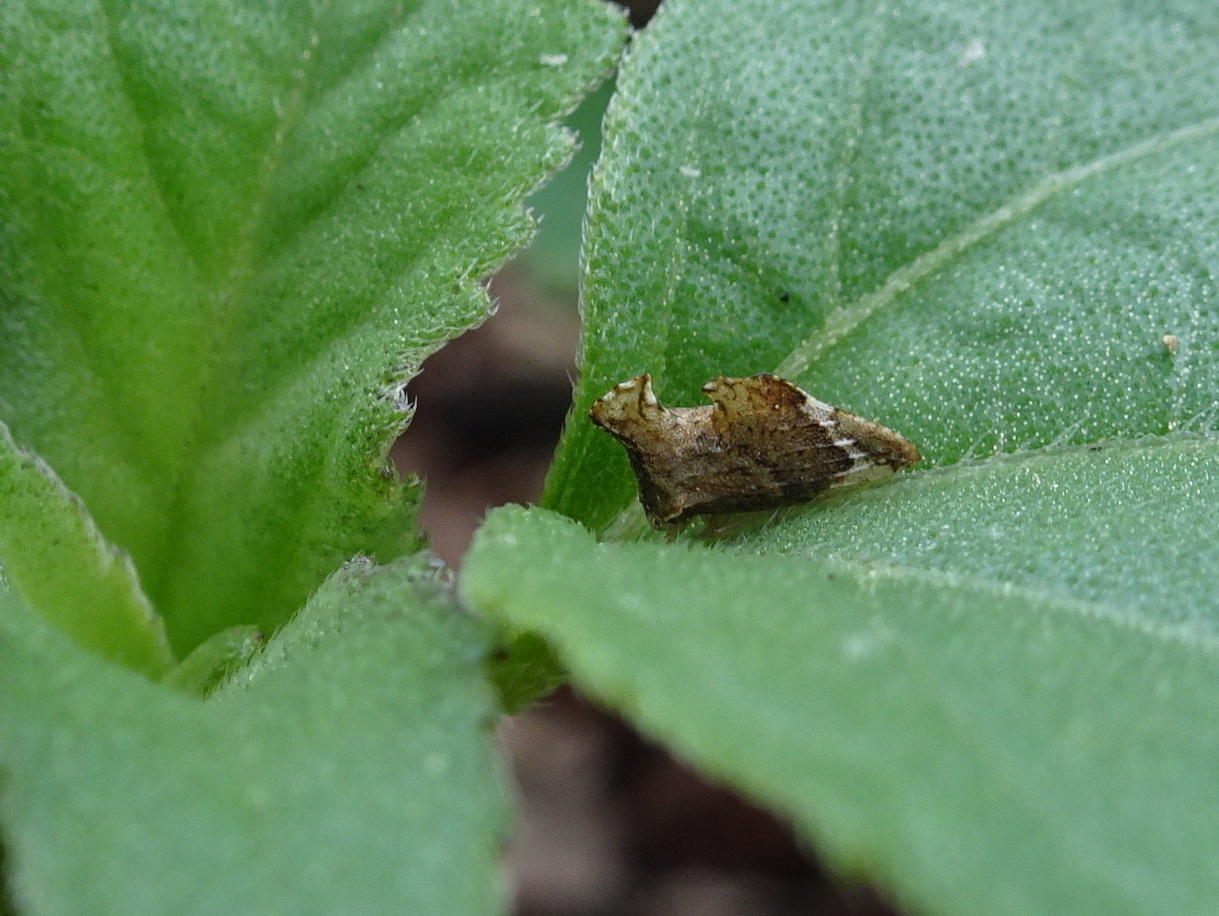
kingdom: Animalia
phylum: Arthropoda
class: Insecta
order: Hemiptera
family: Membracidae
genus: Entylia
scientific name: Entylia carinata
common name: Keeled treehopper
